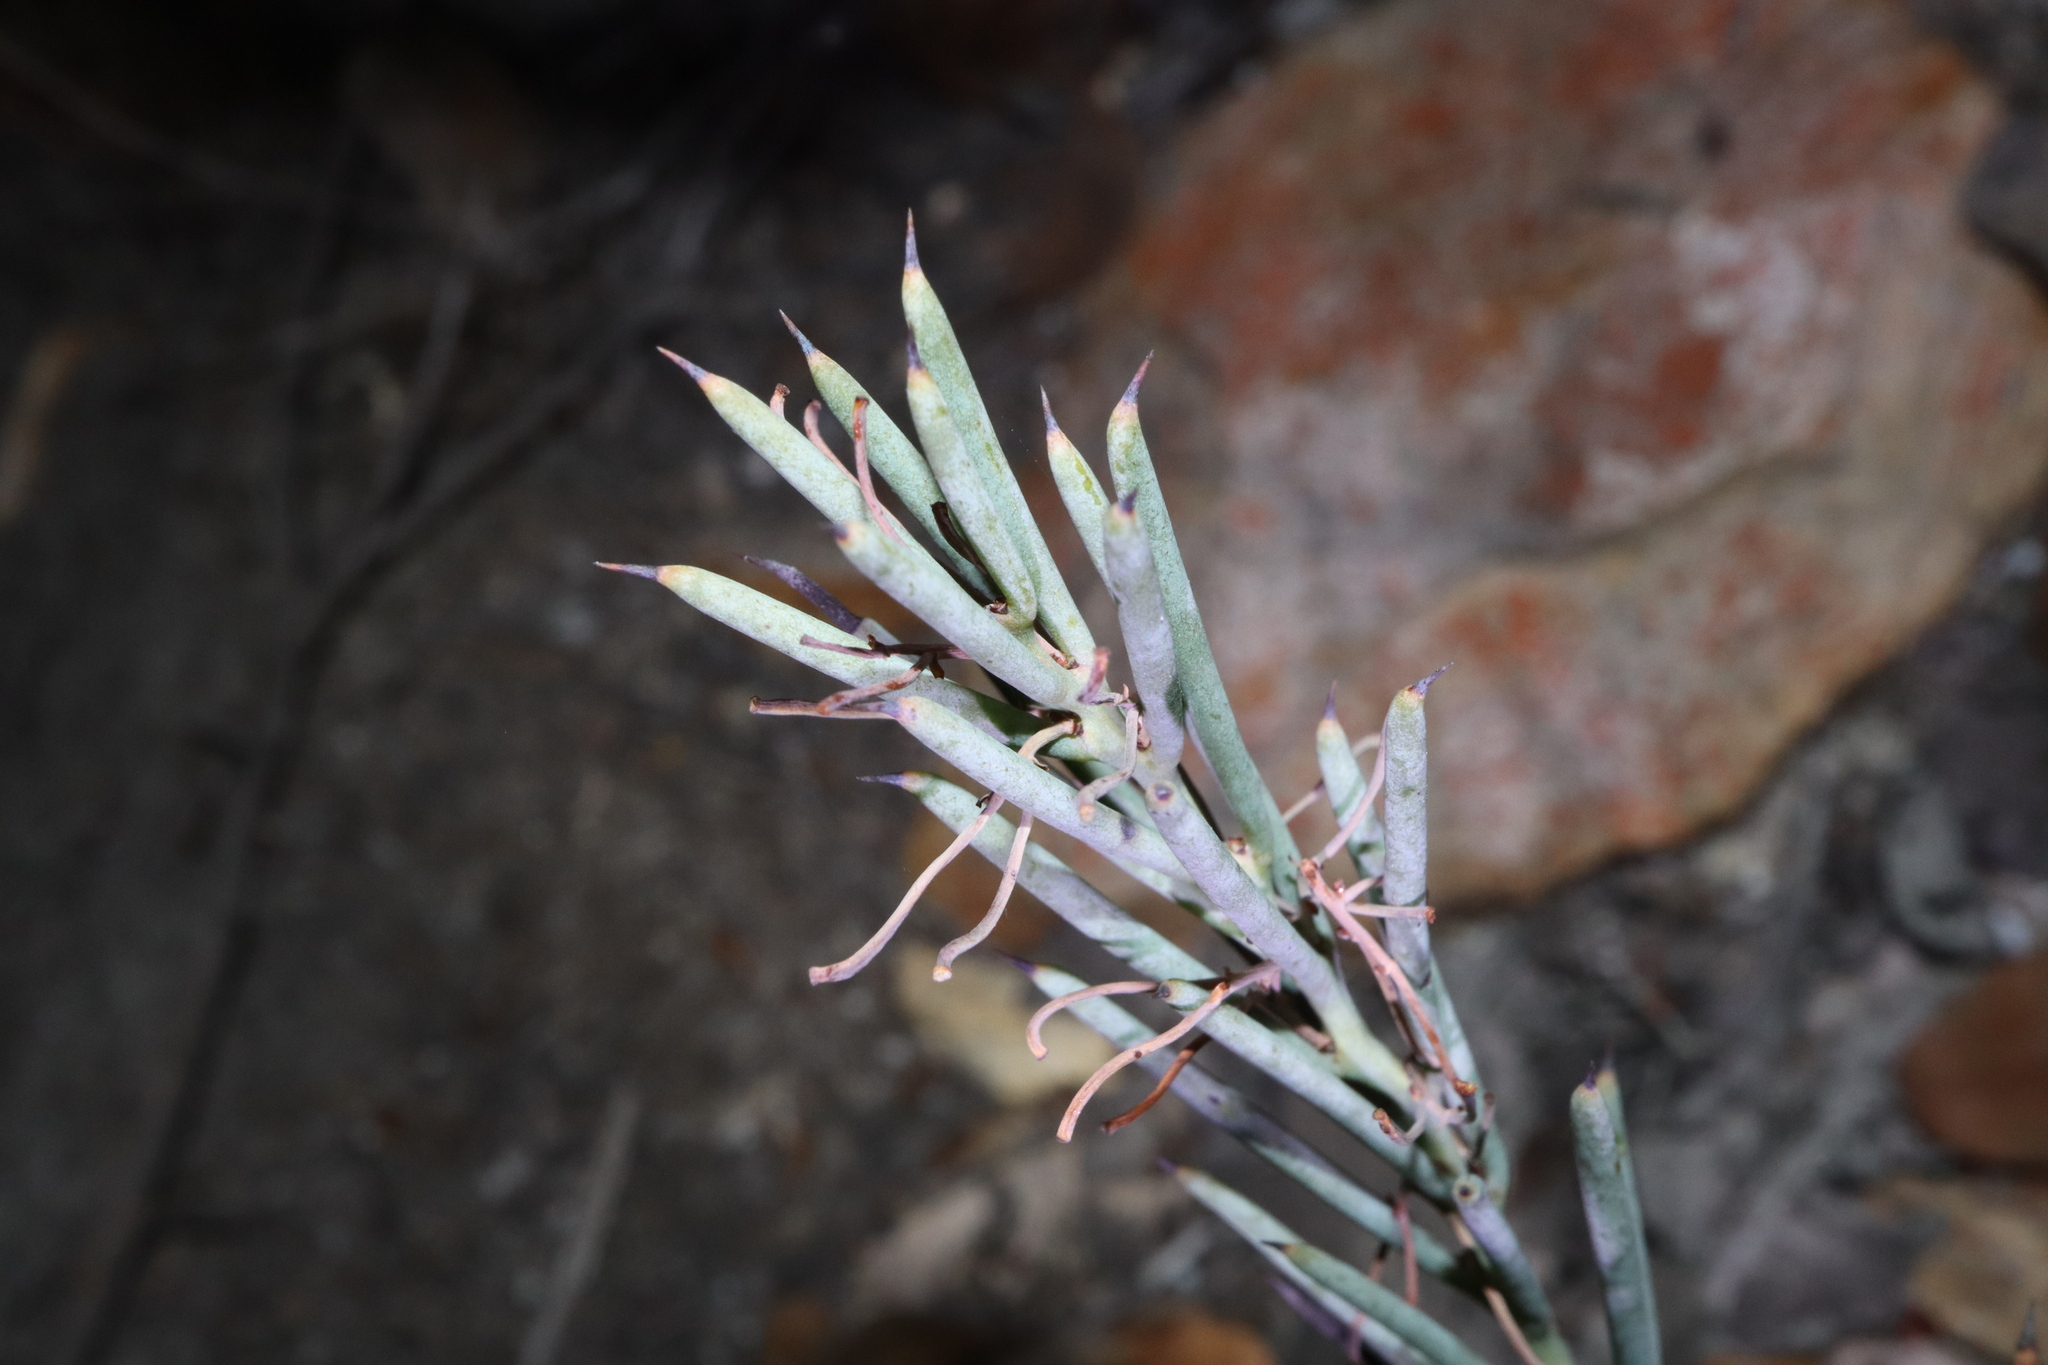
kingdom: Plantae
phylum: Tracheophyta
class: Magnoliopsida
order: Fabales
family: Fabaceae
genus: Daviesia
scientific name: Daviesia teretifolia
